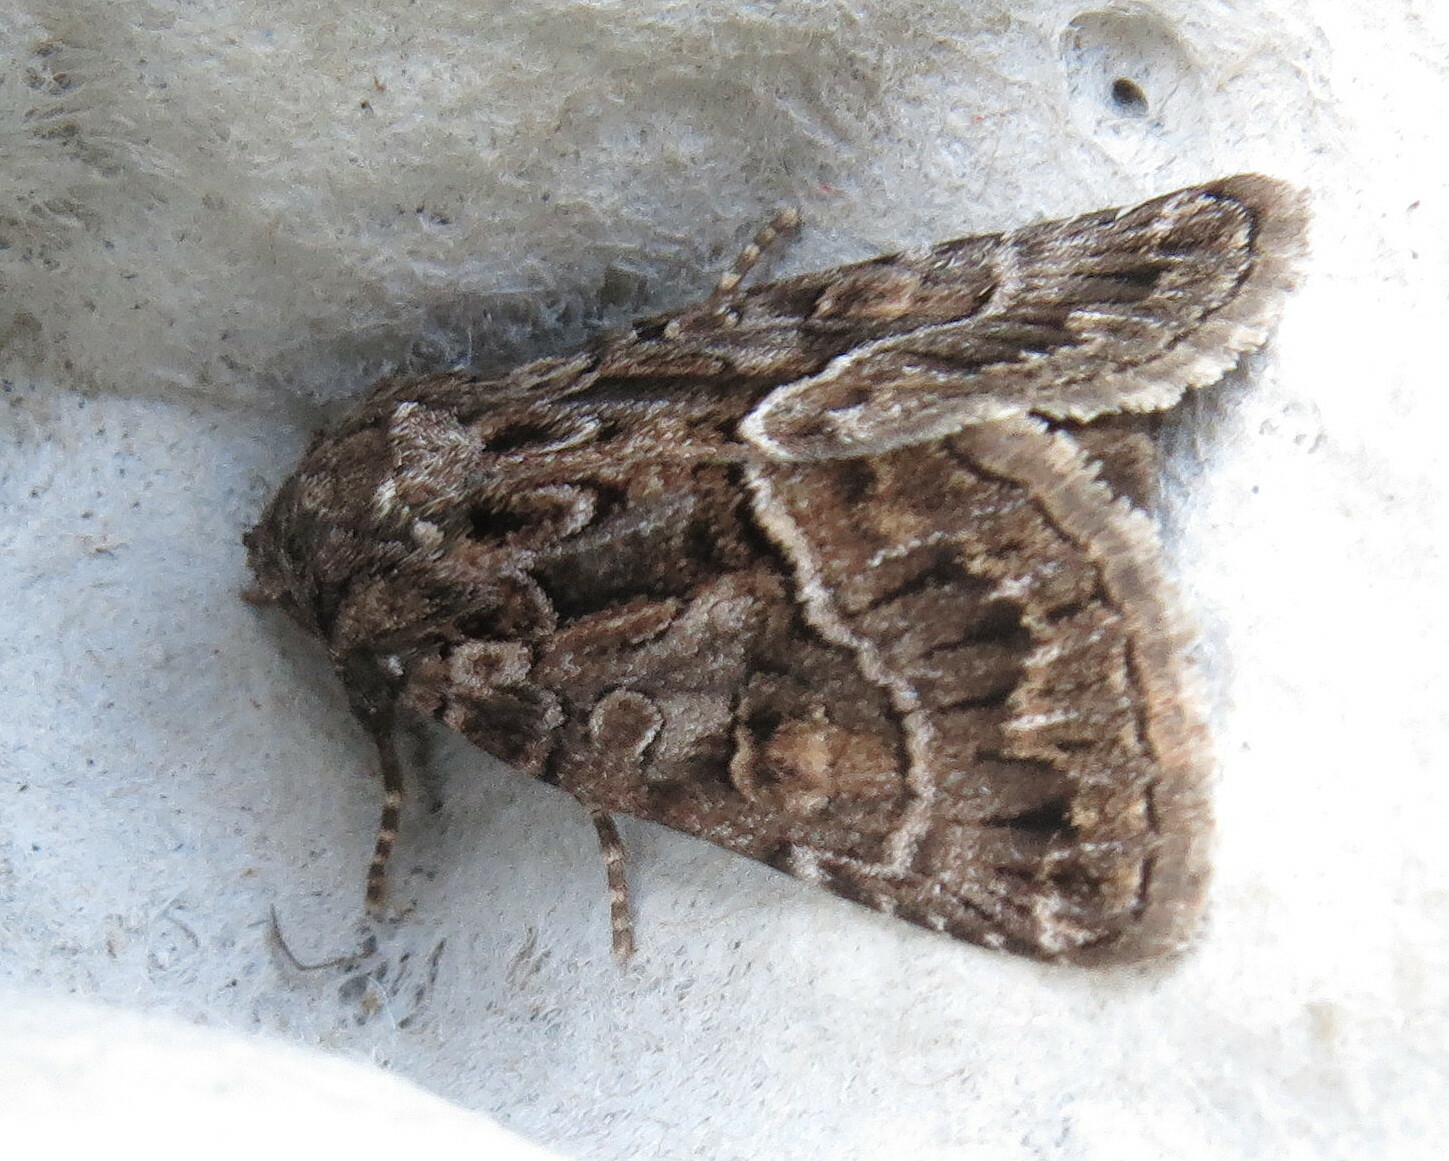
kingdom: Animalia
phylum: Arthropoda
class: Insecta
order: Lepidoptera
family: Noctuidae
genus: Thalpophila
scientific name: Thalpophila matura
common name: Straw underwing
